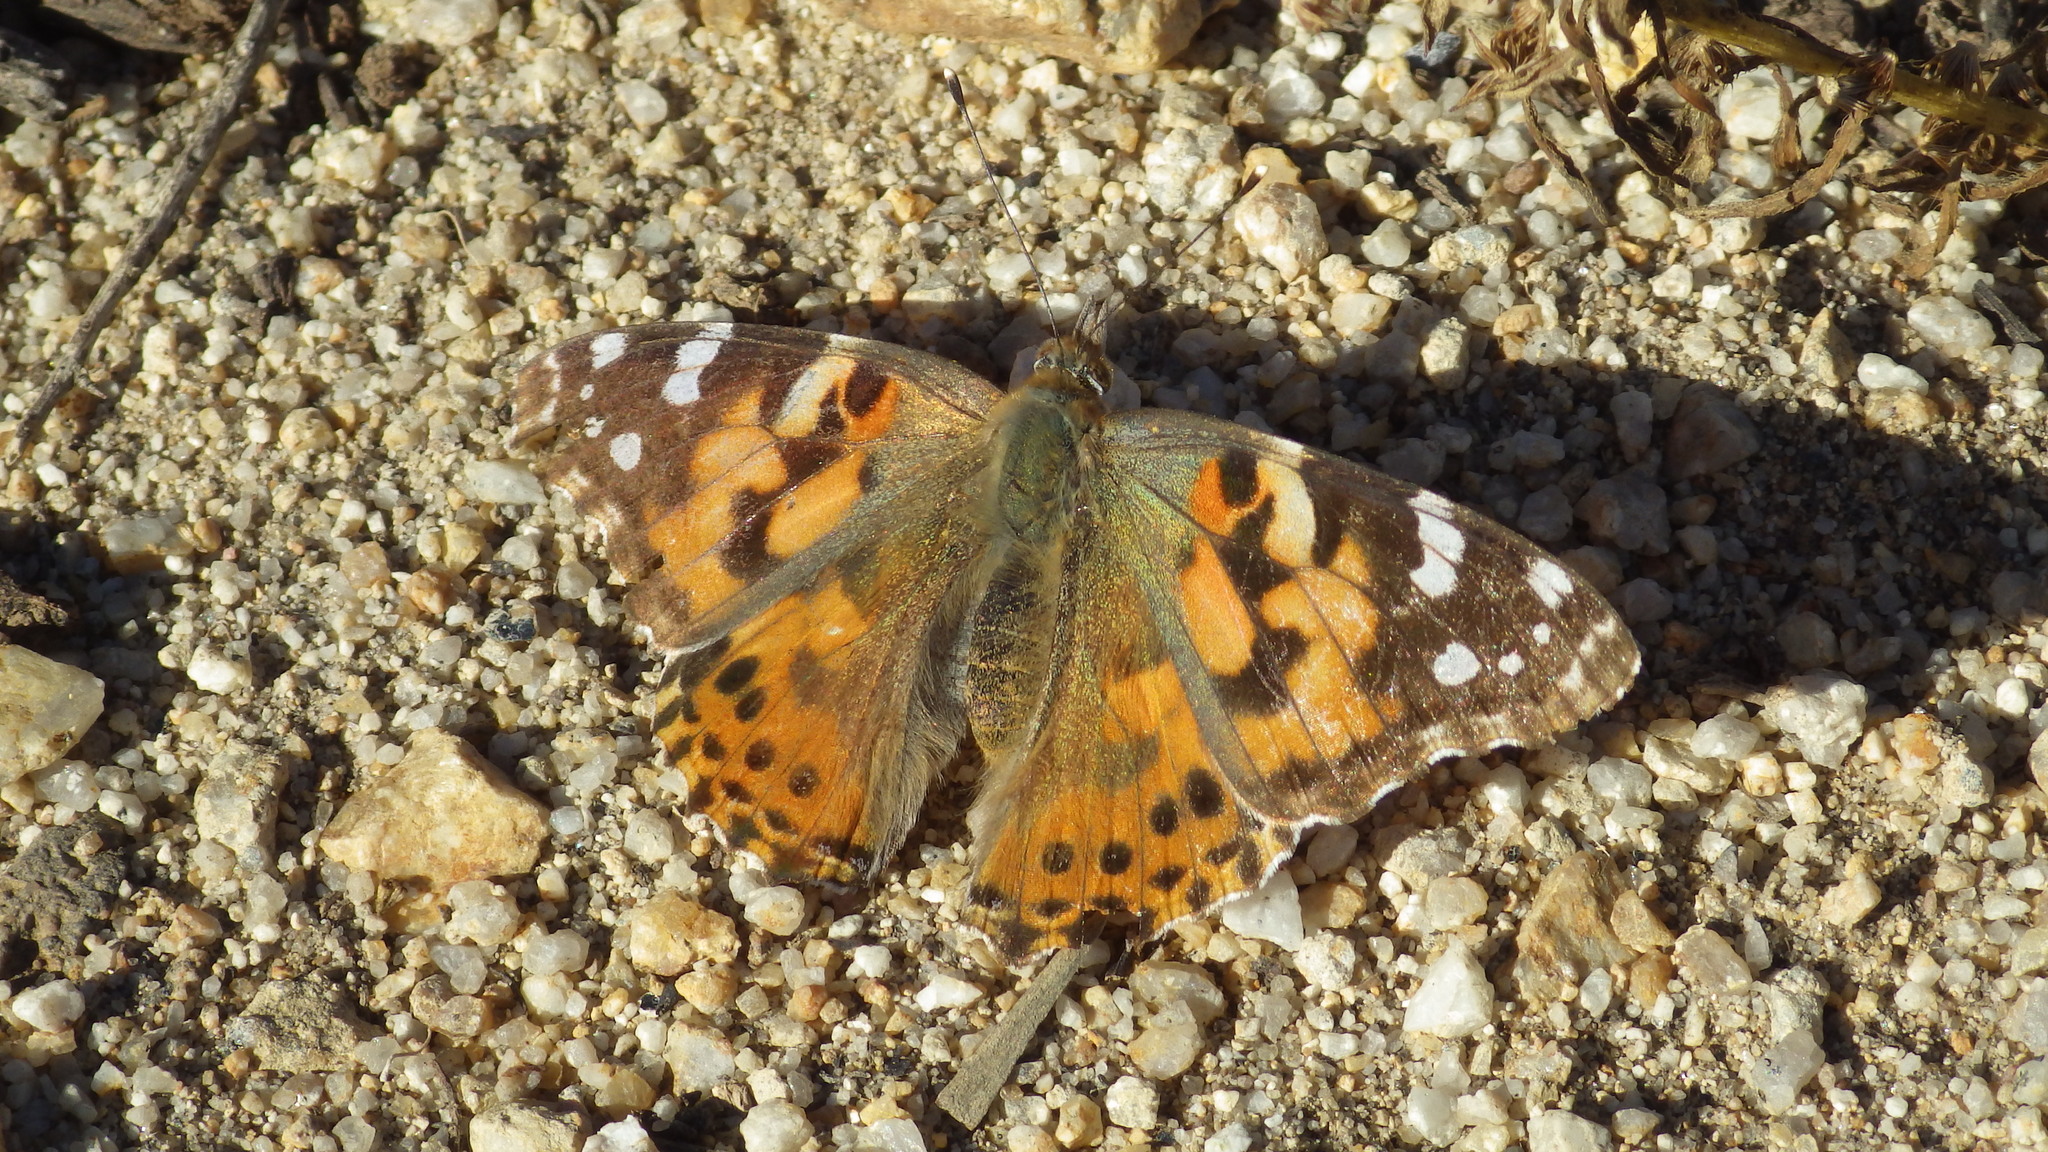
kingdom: Animalia
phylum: Arthropoda
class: Insecta
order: Lepidoptera
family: Nymphalidae
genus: Vanessa
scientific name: Vanessa cardui
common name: Painted lady
